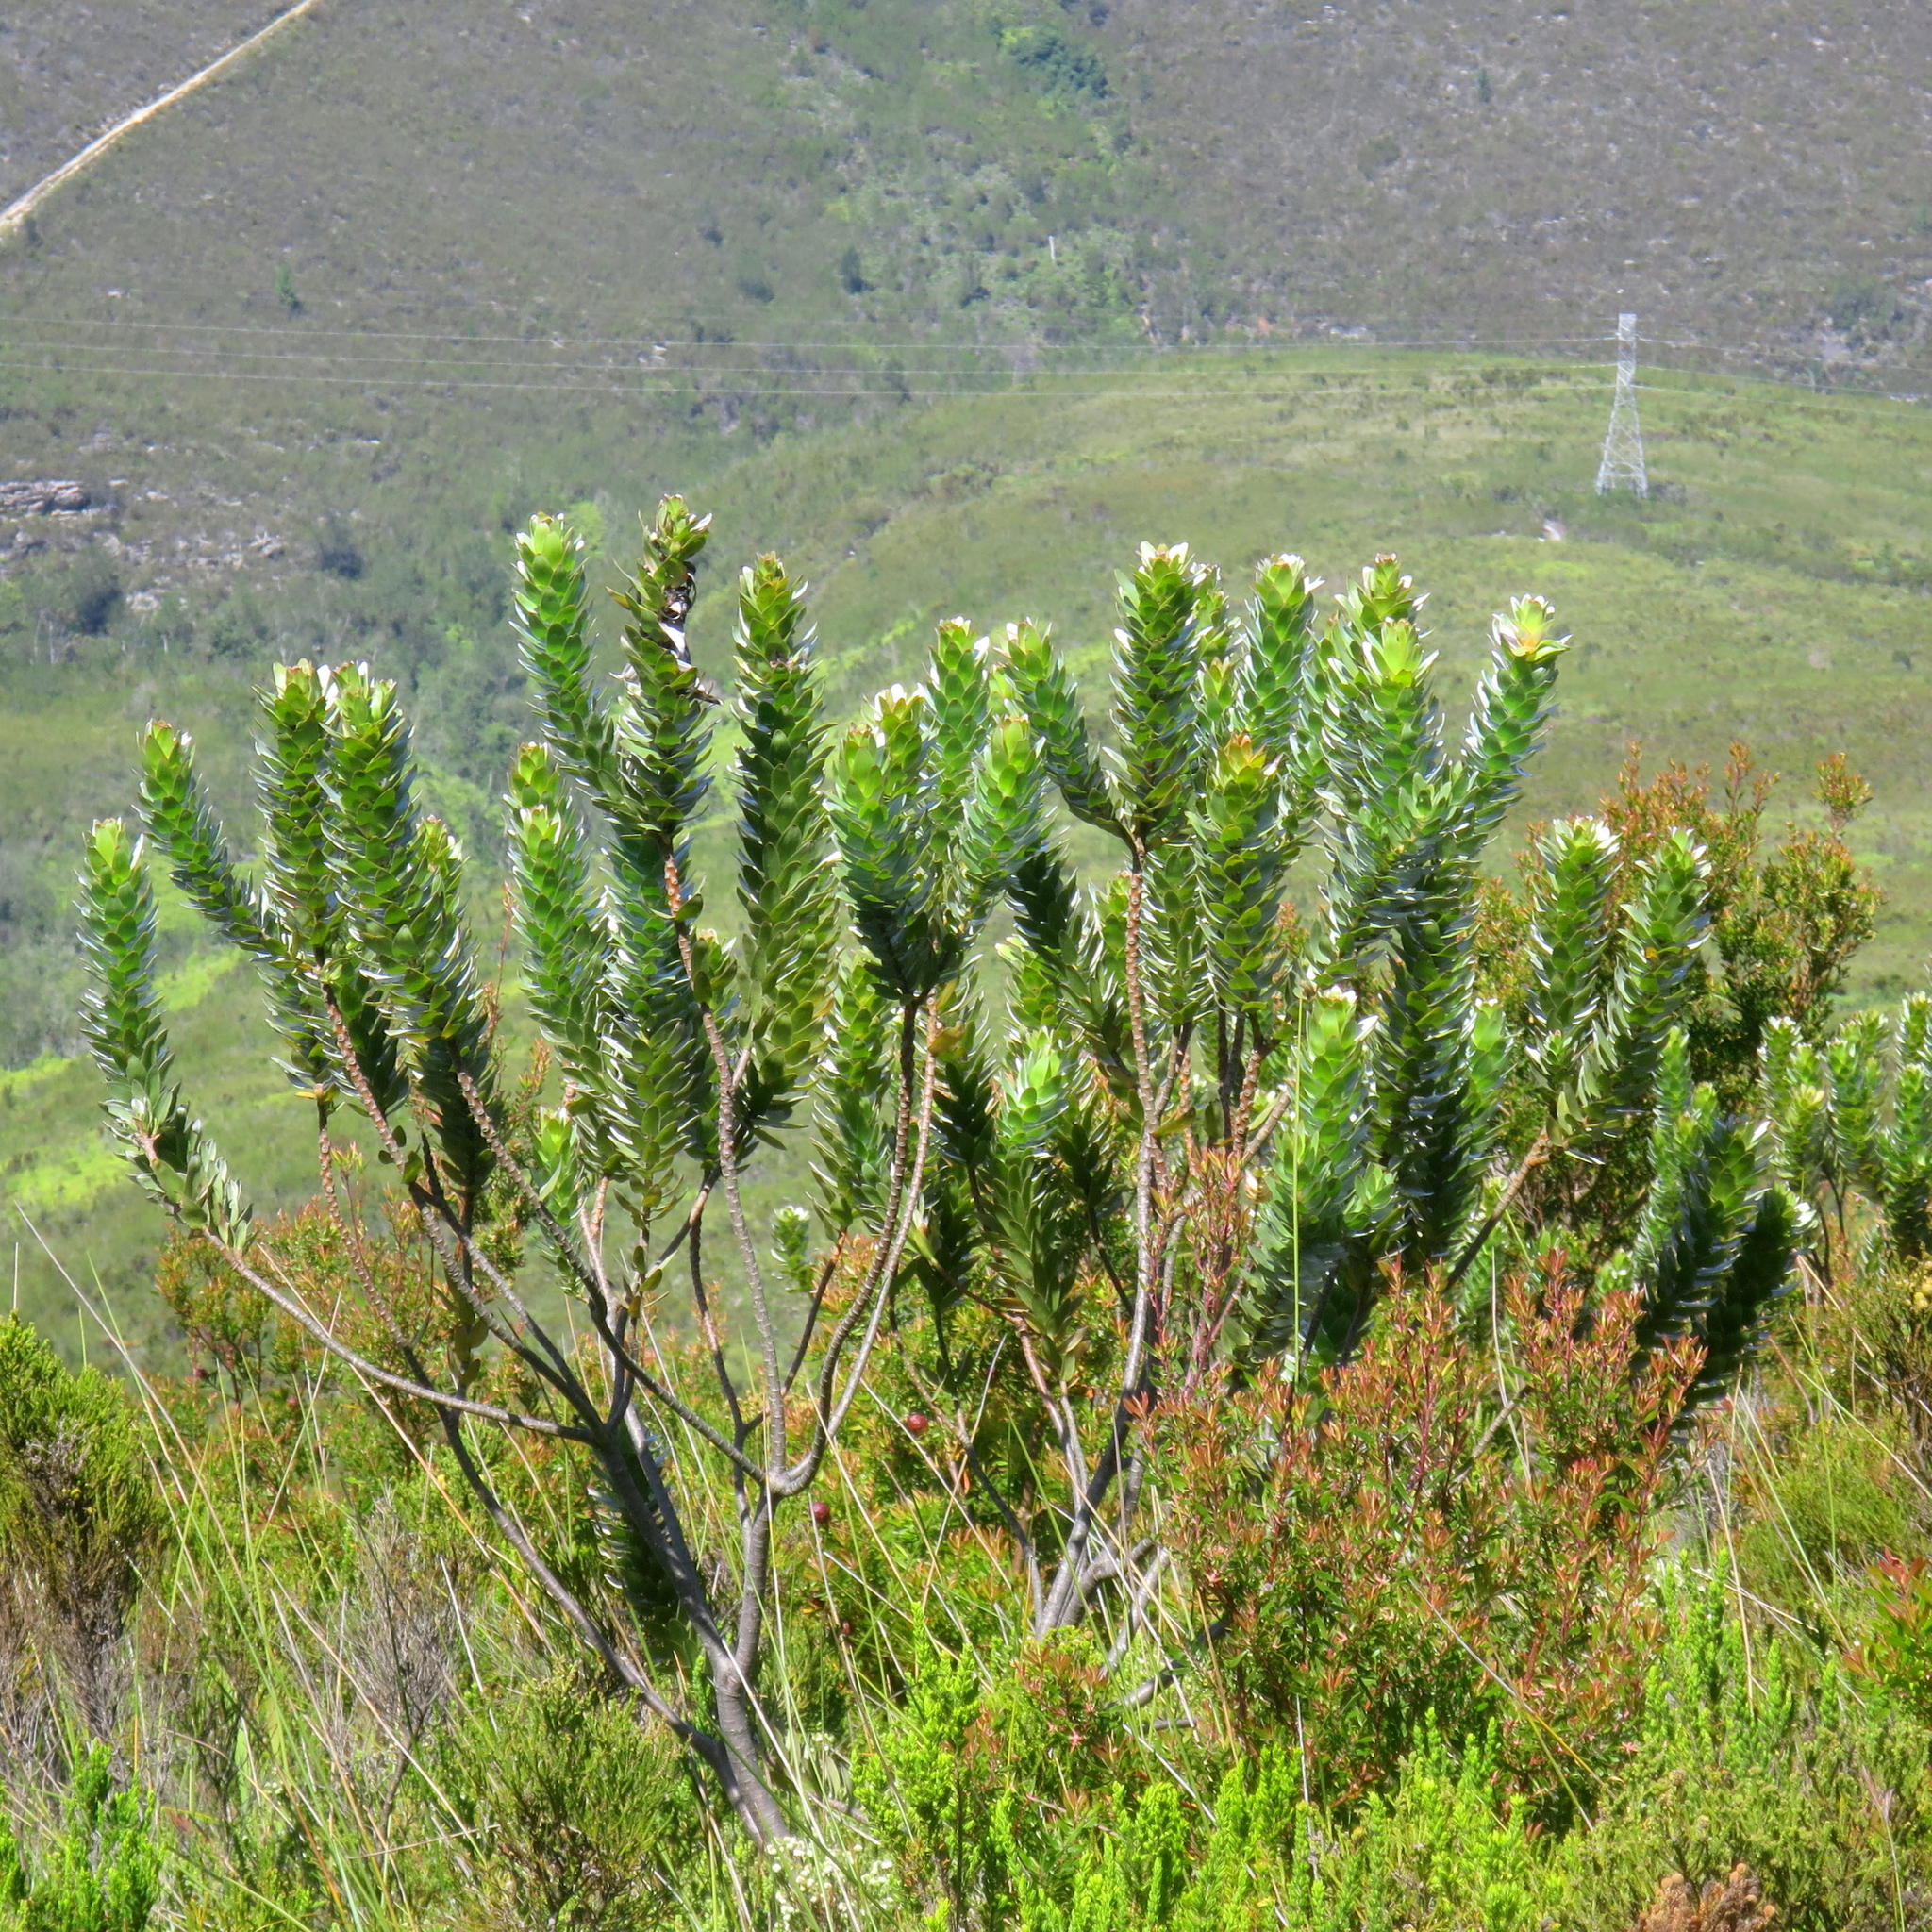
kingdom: Plantae
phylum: Tracheophyta
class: Magnoliopsida
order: Proteales
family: Proteaceae
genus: Mimetes
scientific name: Mimetes splendidus
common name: Splendid pagoda
